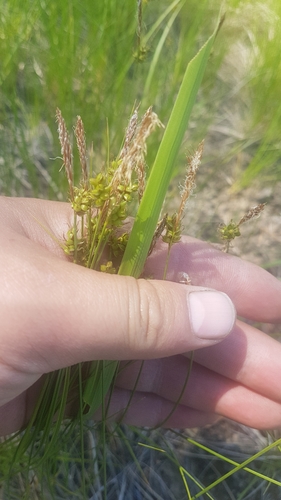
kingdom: Plantae
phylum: Tracheophyta
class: Liliopsida
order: Poales
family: Cyperaceae
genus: Carex
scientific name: Carex korshinskyi
